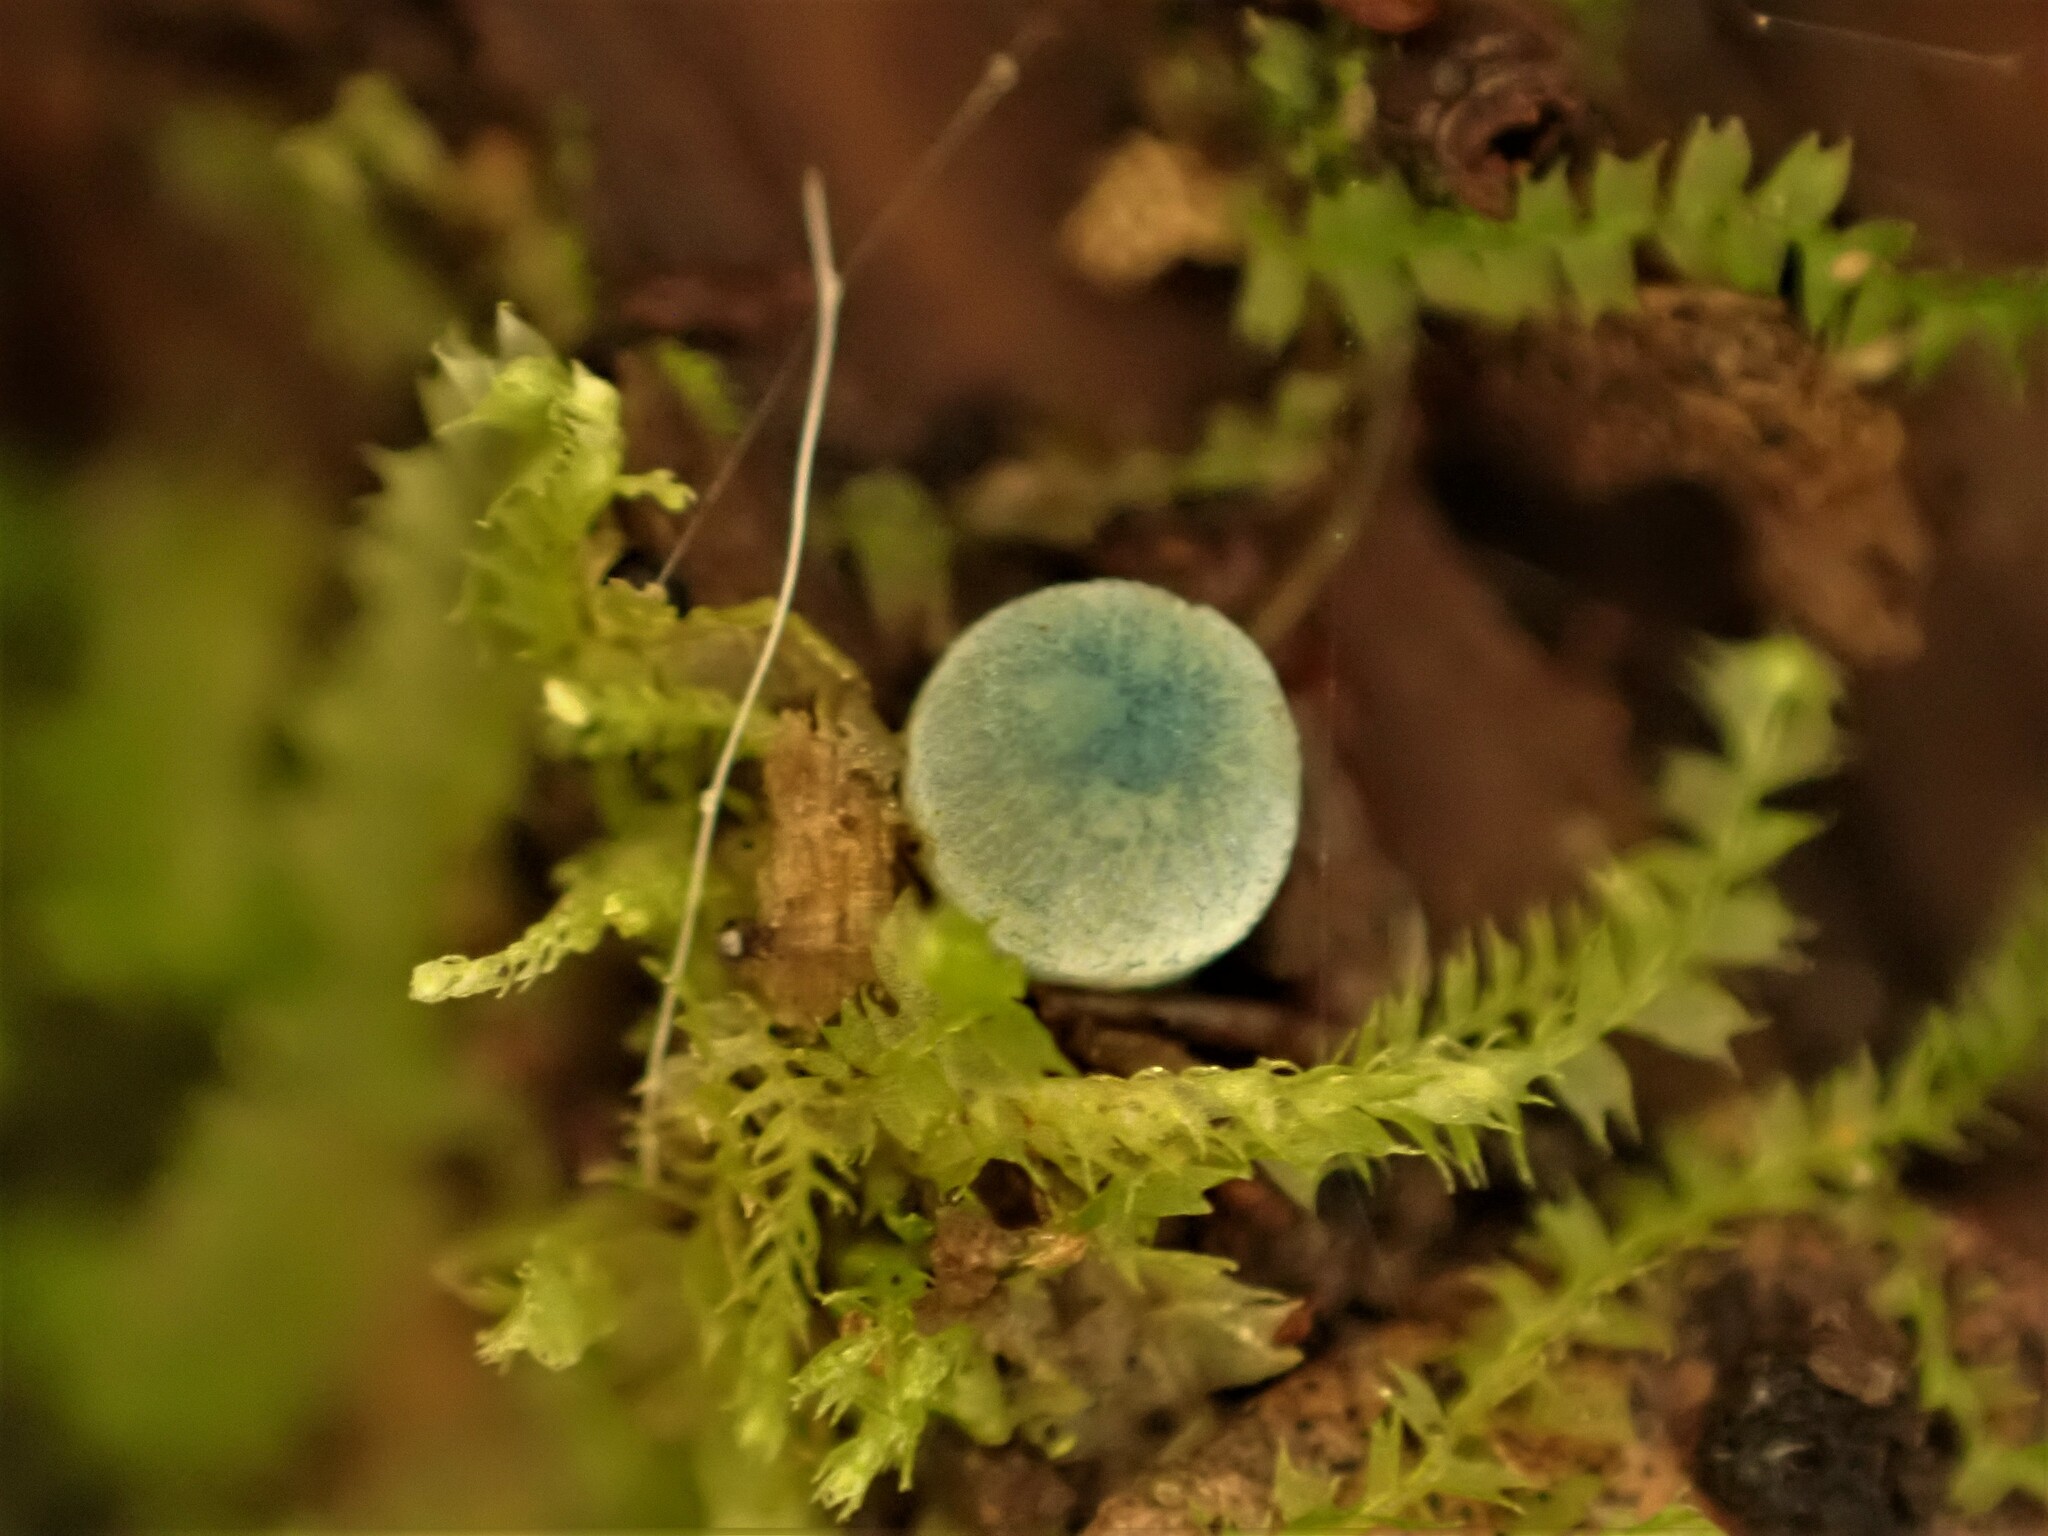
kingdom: Fungi
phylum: Basidiomycota
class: Agaricomycetes
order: Agaricales
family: Mycenaceae
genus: Mycena
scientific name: Mycena interrupta
